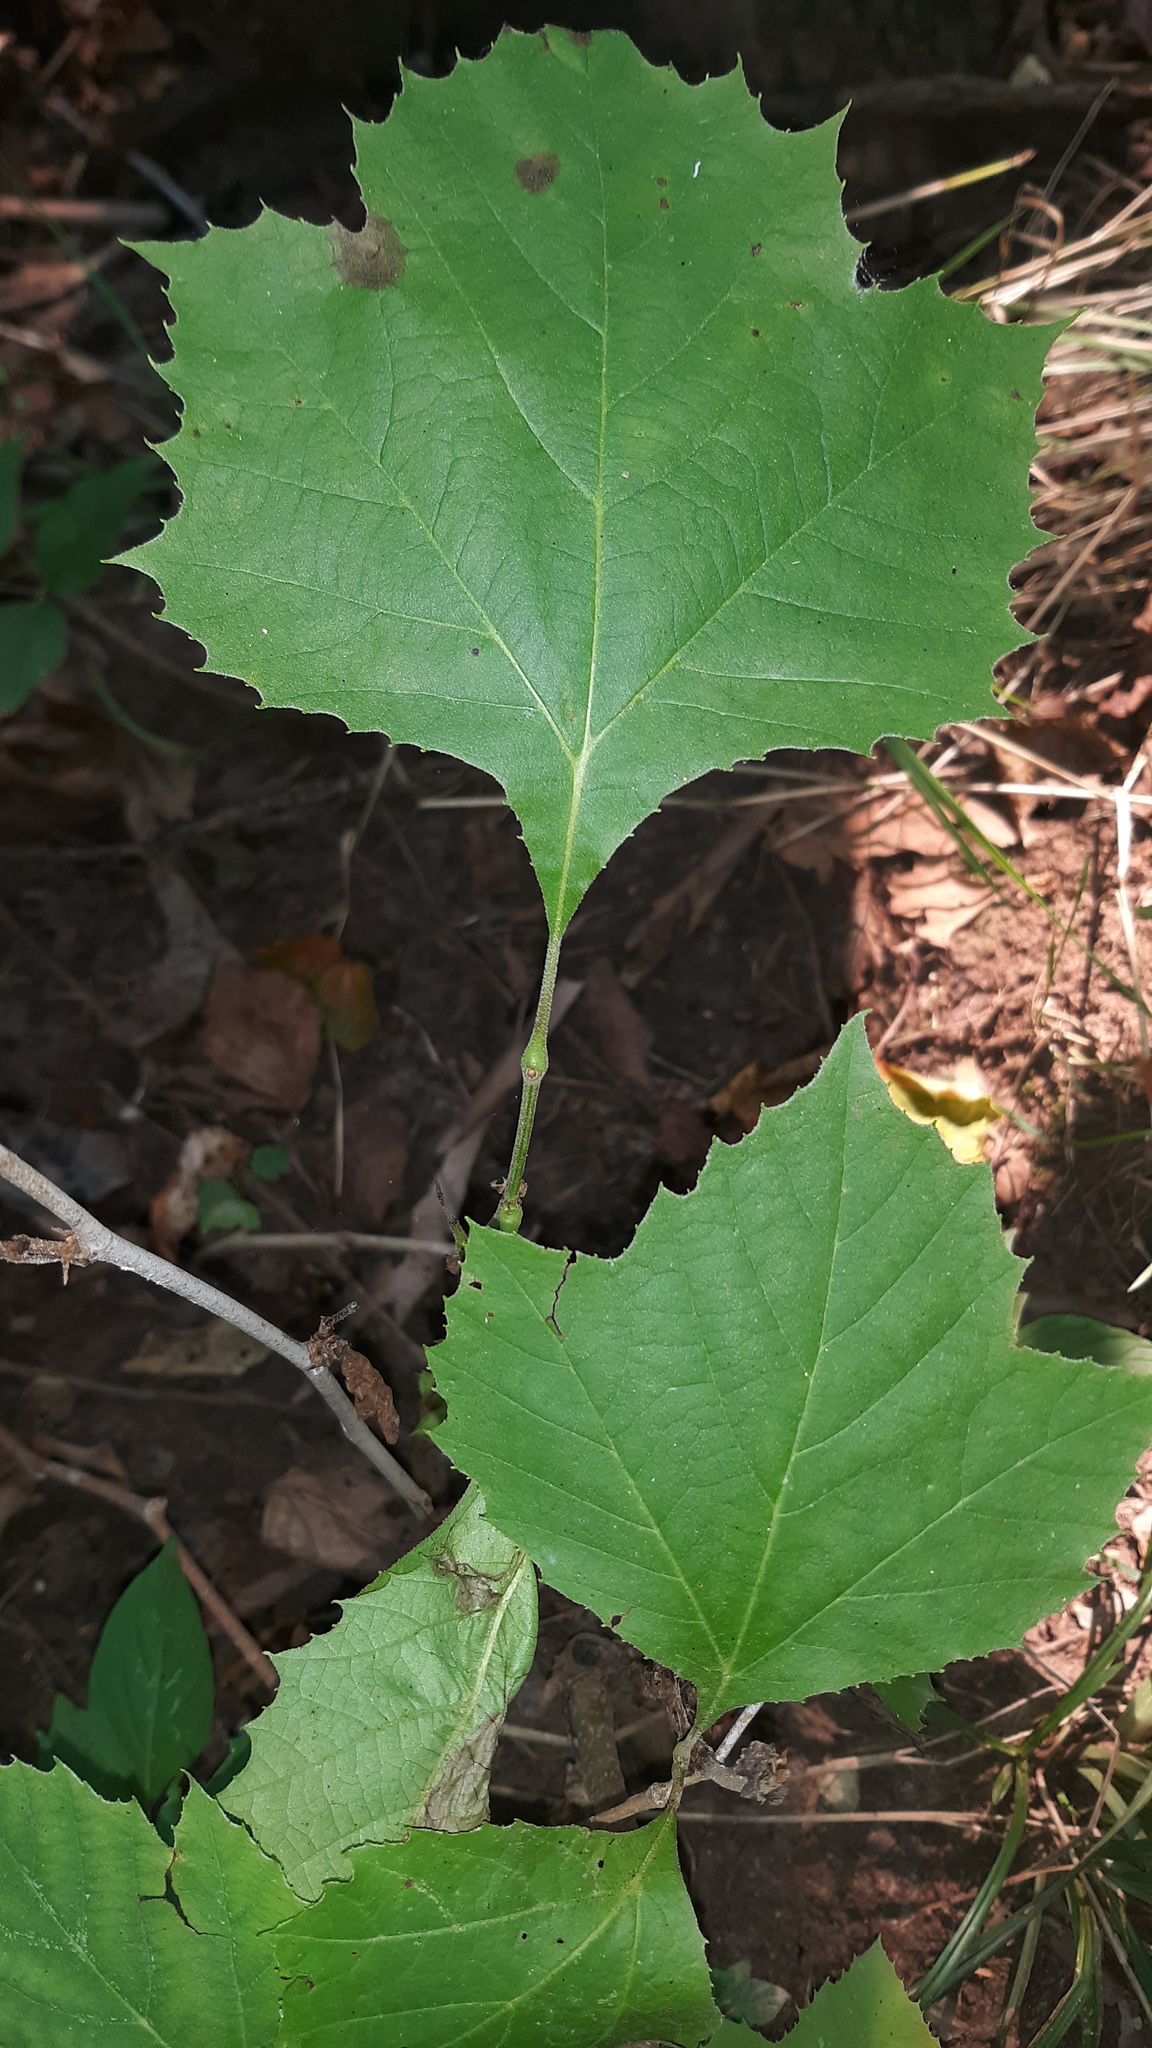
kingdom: Plantae
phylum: Tracheophyta
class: Magnoliopsida
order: Proteales
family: Platanaceae
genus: Platanus
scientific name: Platanus occidentalis
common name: American sycamore
